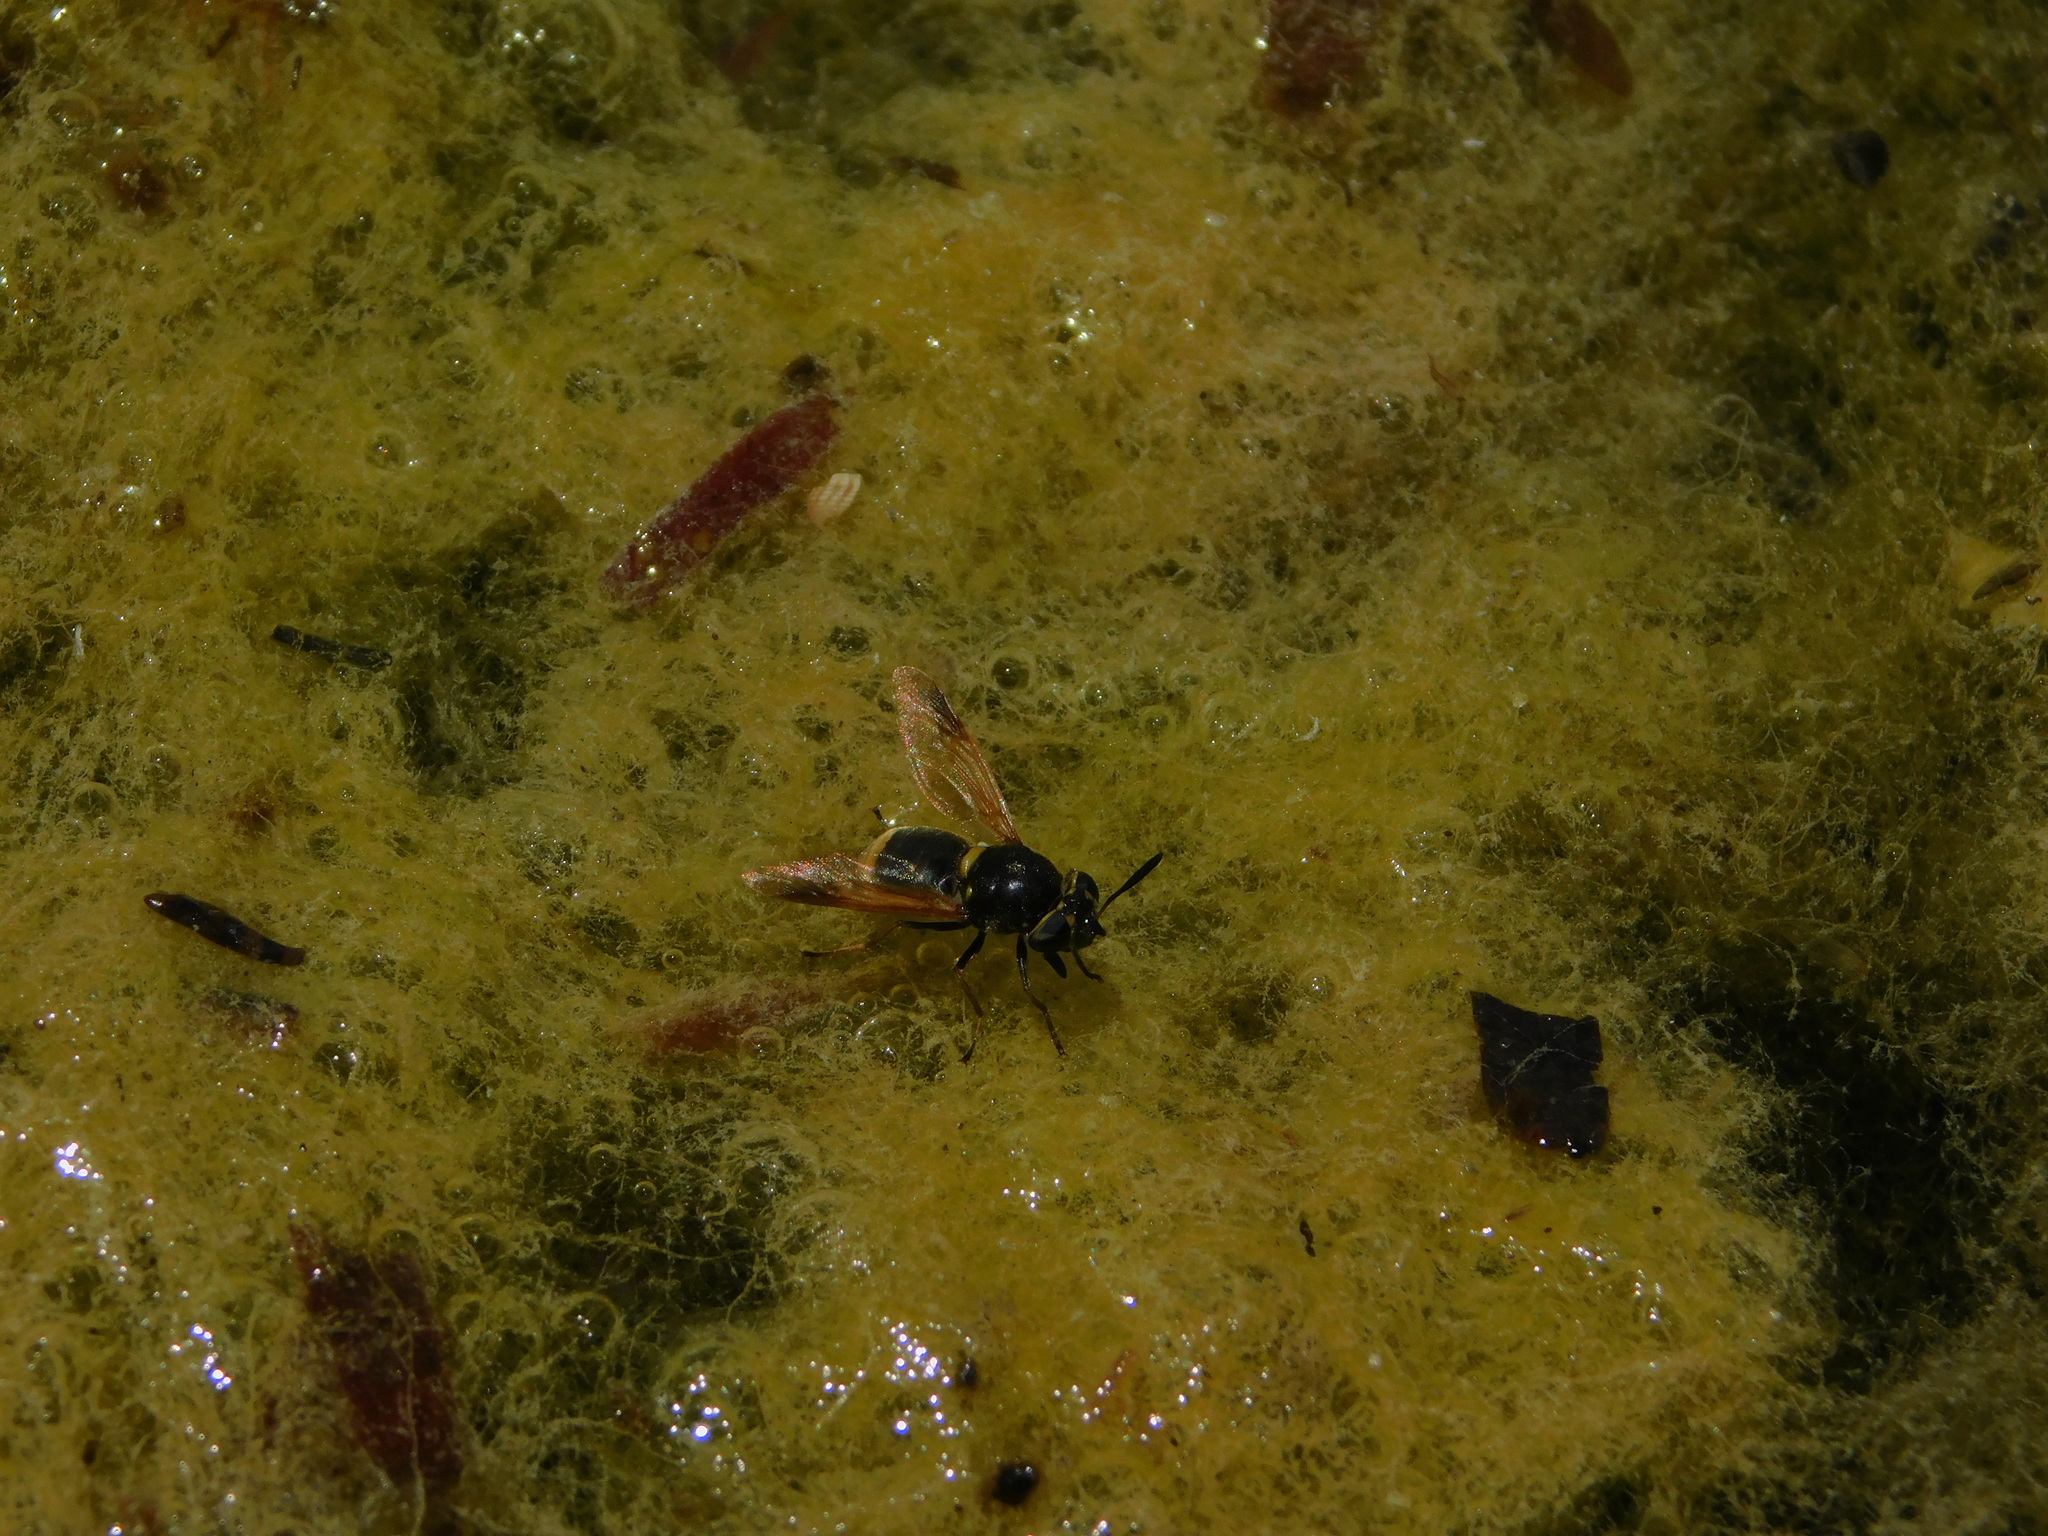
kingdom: Animalia
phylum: Arthropoda
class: Insecta
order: Diptera
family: Stratiomyidae
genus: Hoplitimyia
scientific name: Hoplitimyia mutabilis
